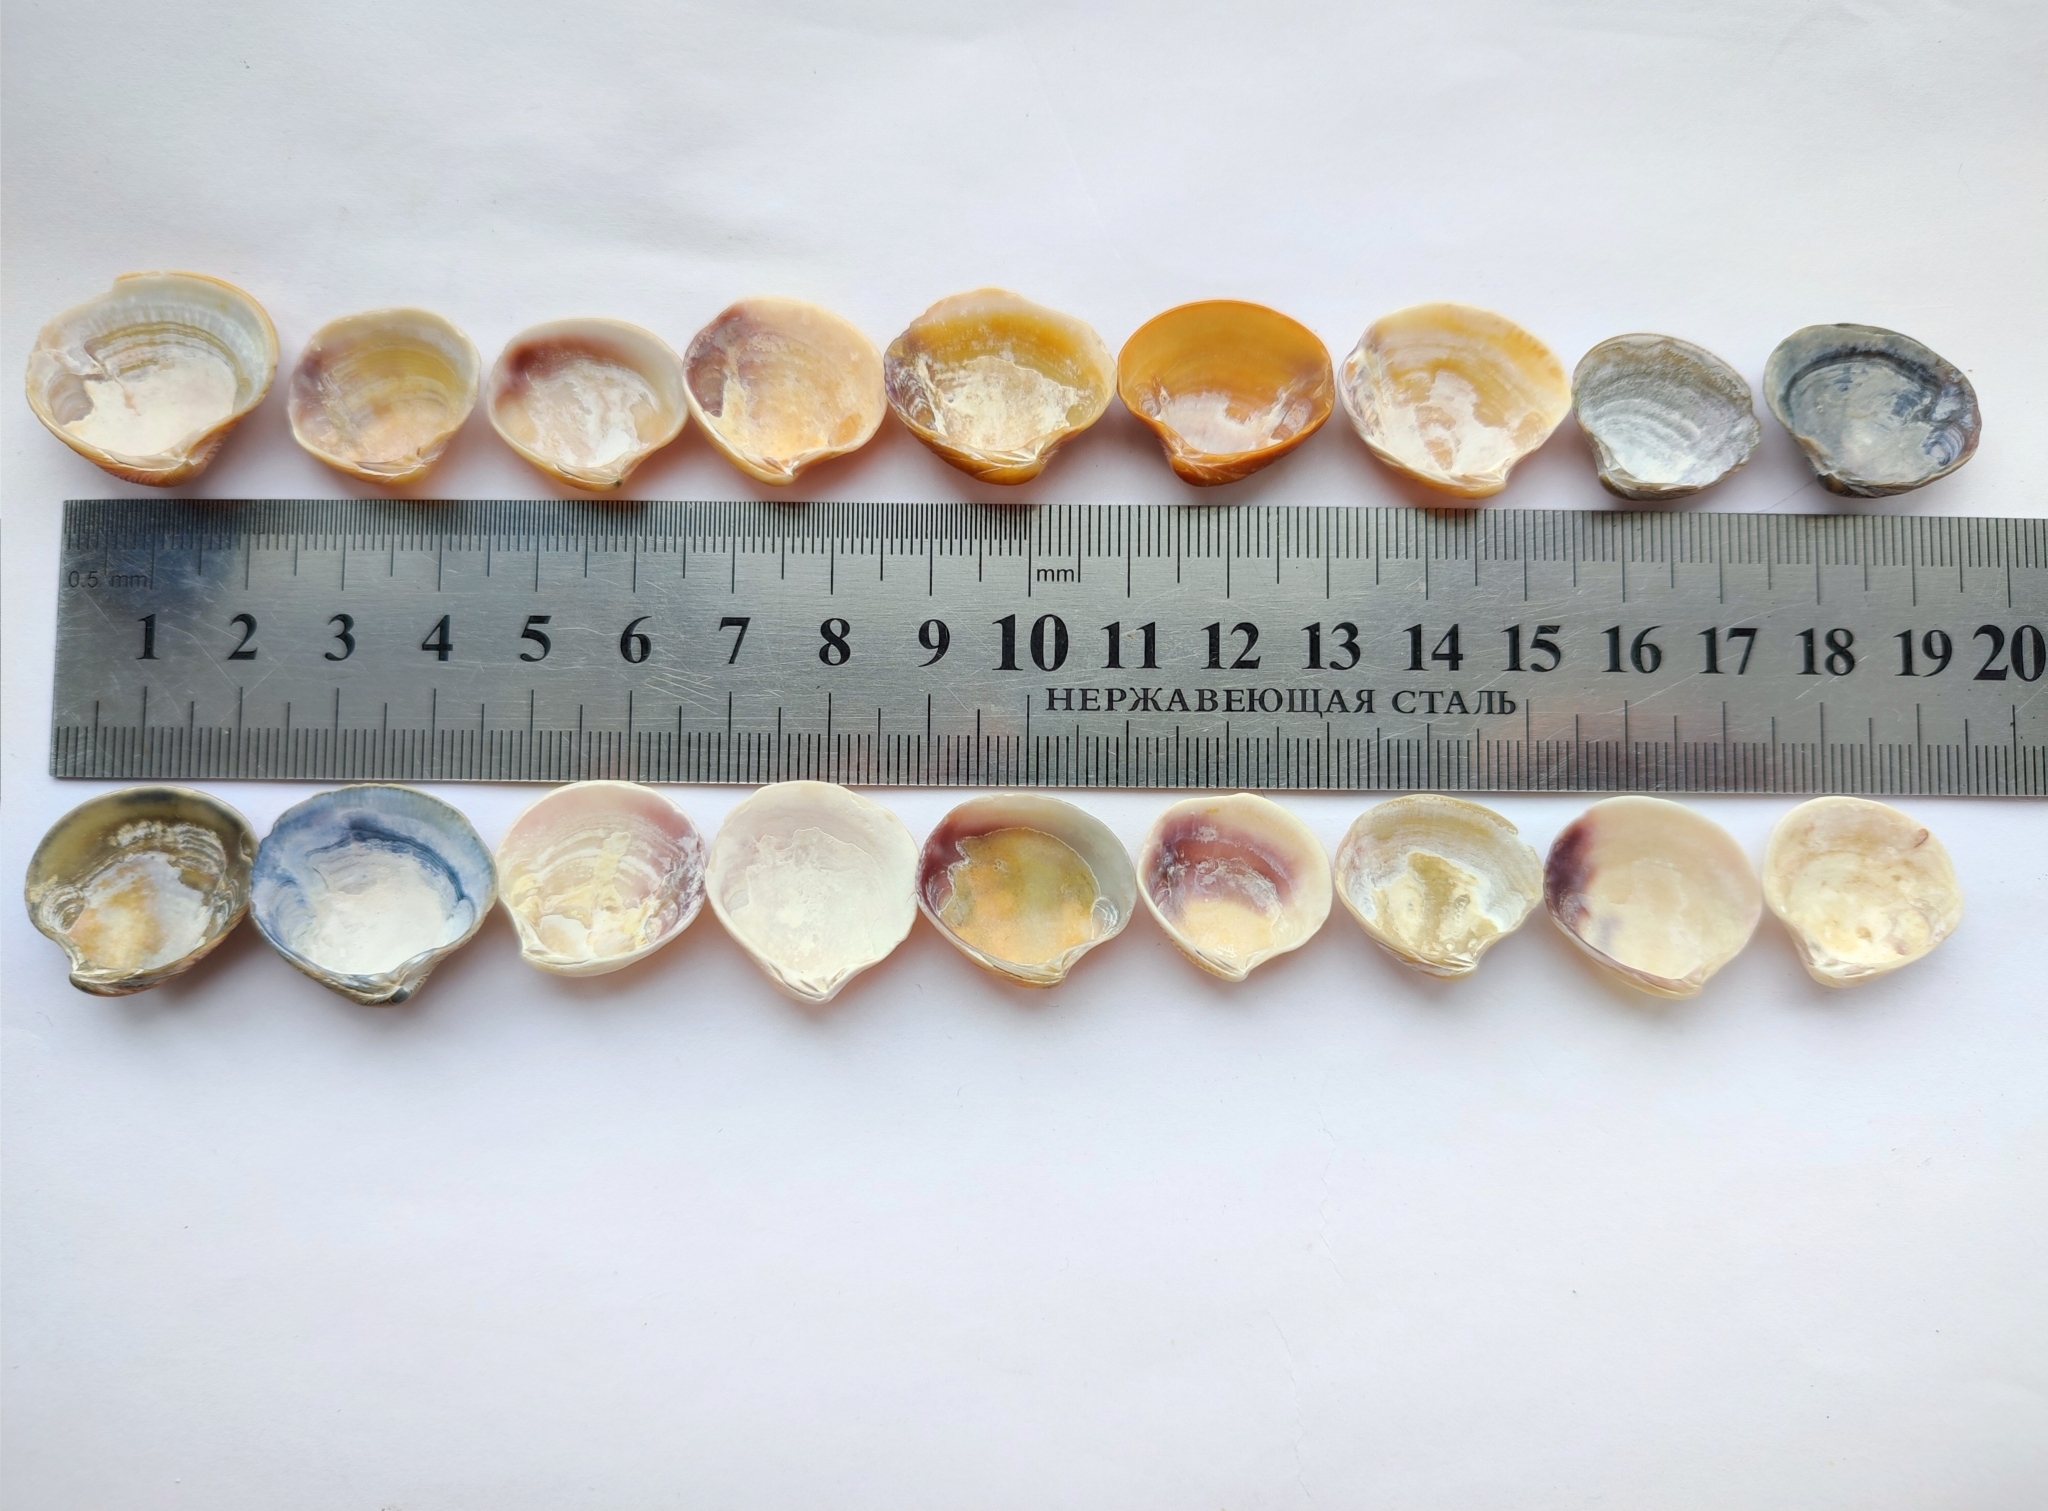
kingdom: Animalia
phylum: Mollusca
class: Bivalvia
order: Venerida
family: Veneridae
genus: Chamelea
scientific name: Chamelea gallina
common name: Chicken venus
